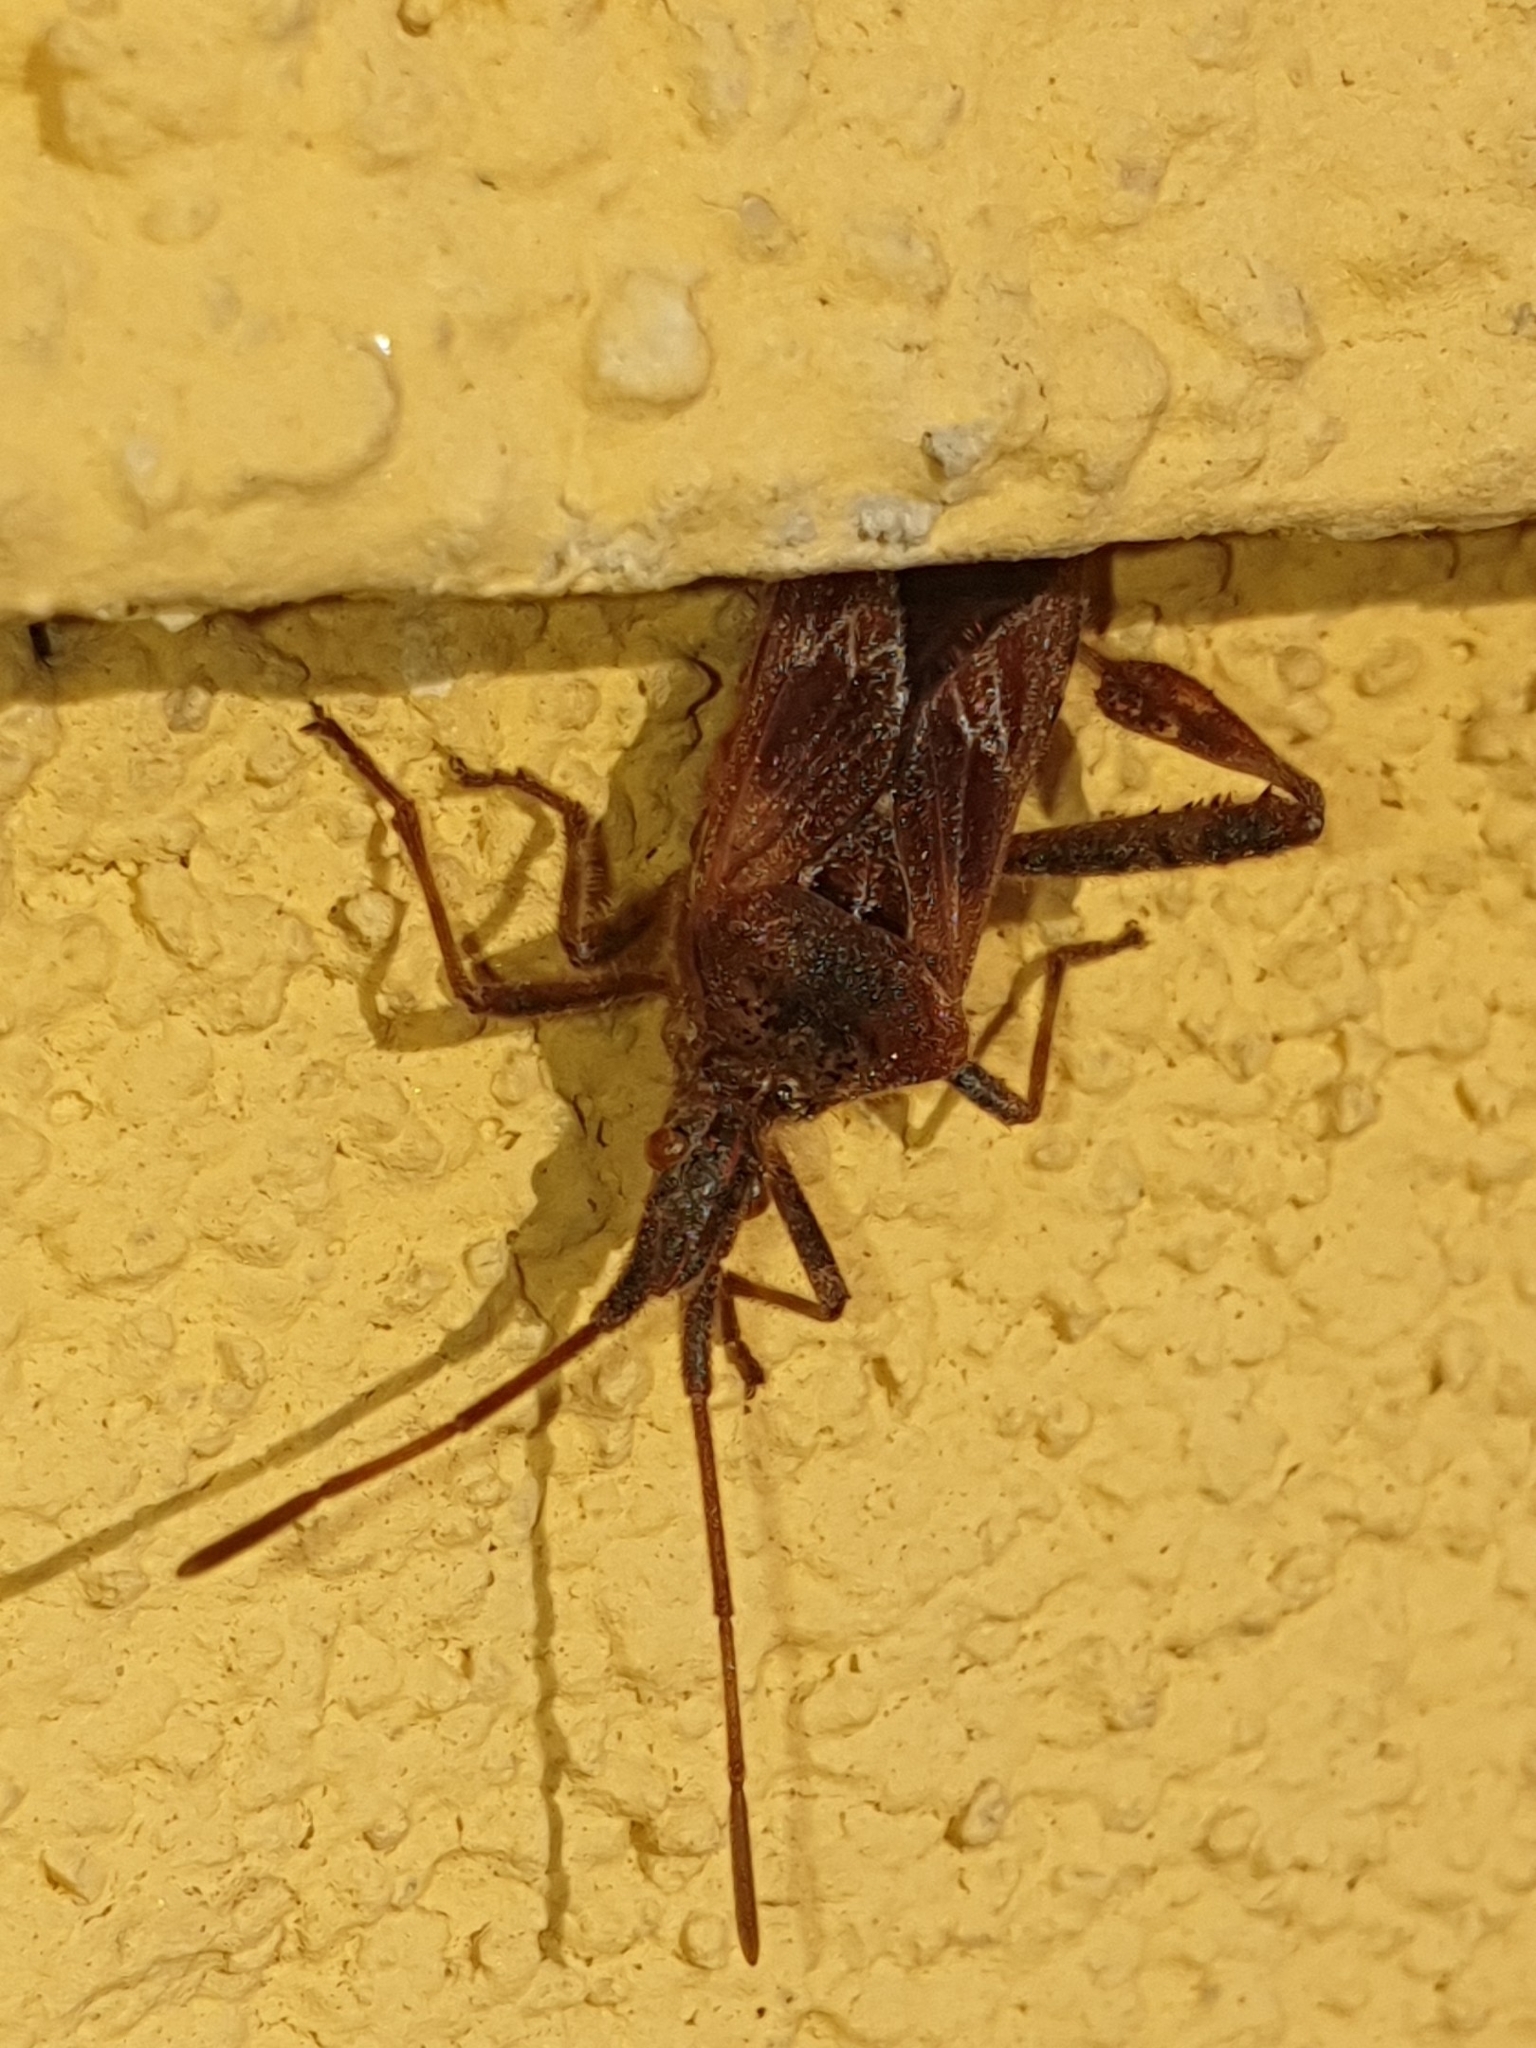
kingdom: Animalia
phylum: Arthropoda
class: Insecta
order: Hemiptera
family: Coreidae
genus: Leptoglossus
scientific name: Leptoglossus occidentalis
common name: Western conifer-seed bug
